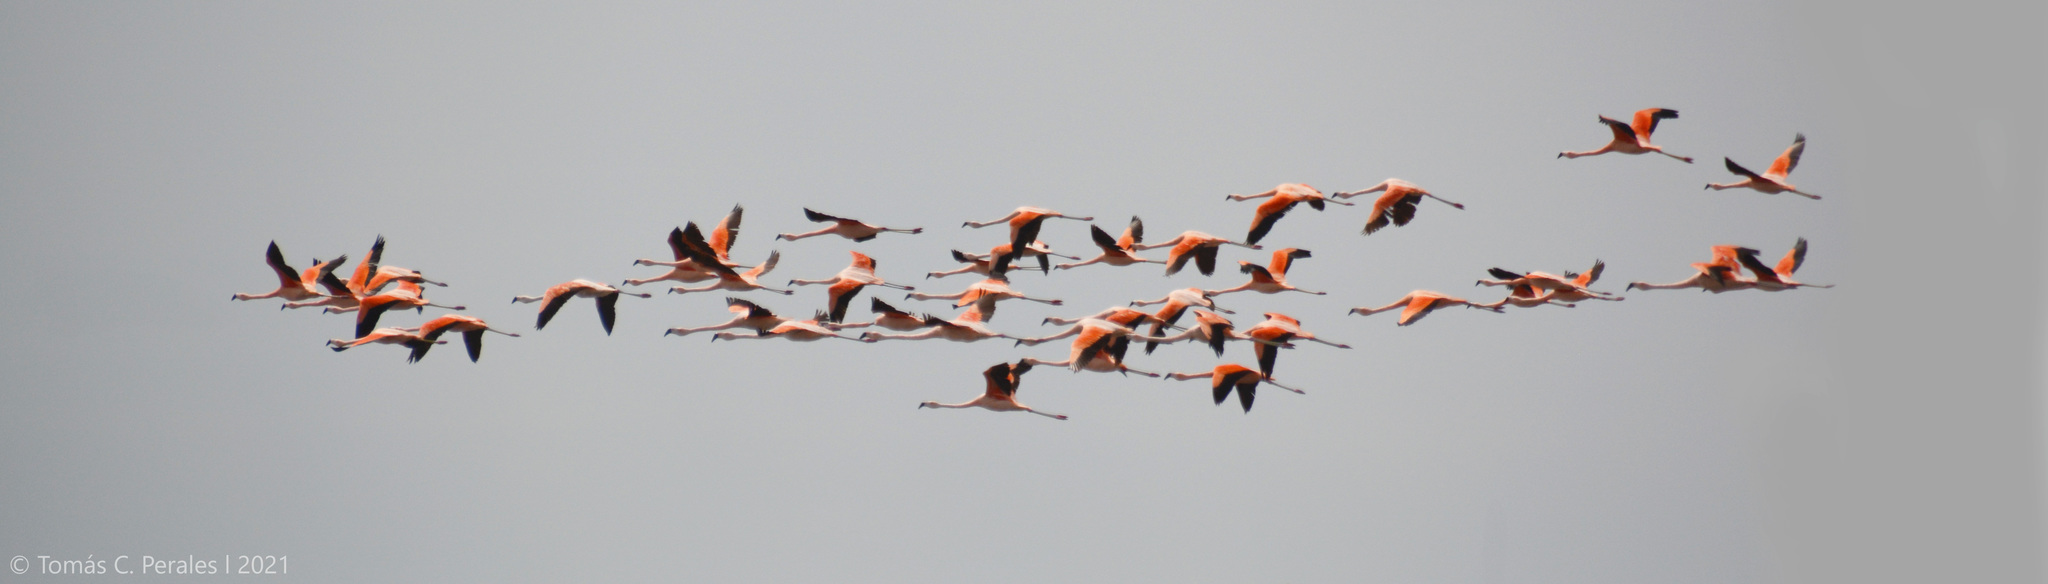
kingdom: Animalia
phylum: Chordata
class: Aves
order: Phoenicopteriformes
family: Phoenicopteridae
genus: Phoenicopterus
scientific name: Phoenicopterus chilensis
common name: Chilean flamingo
